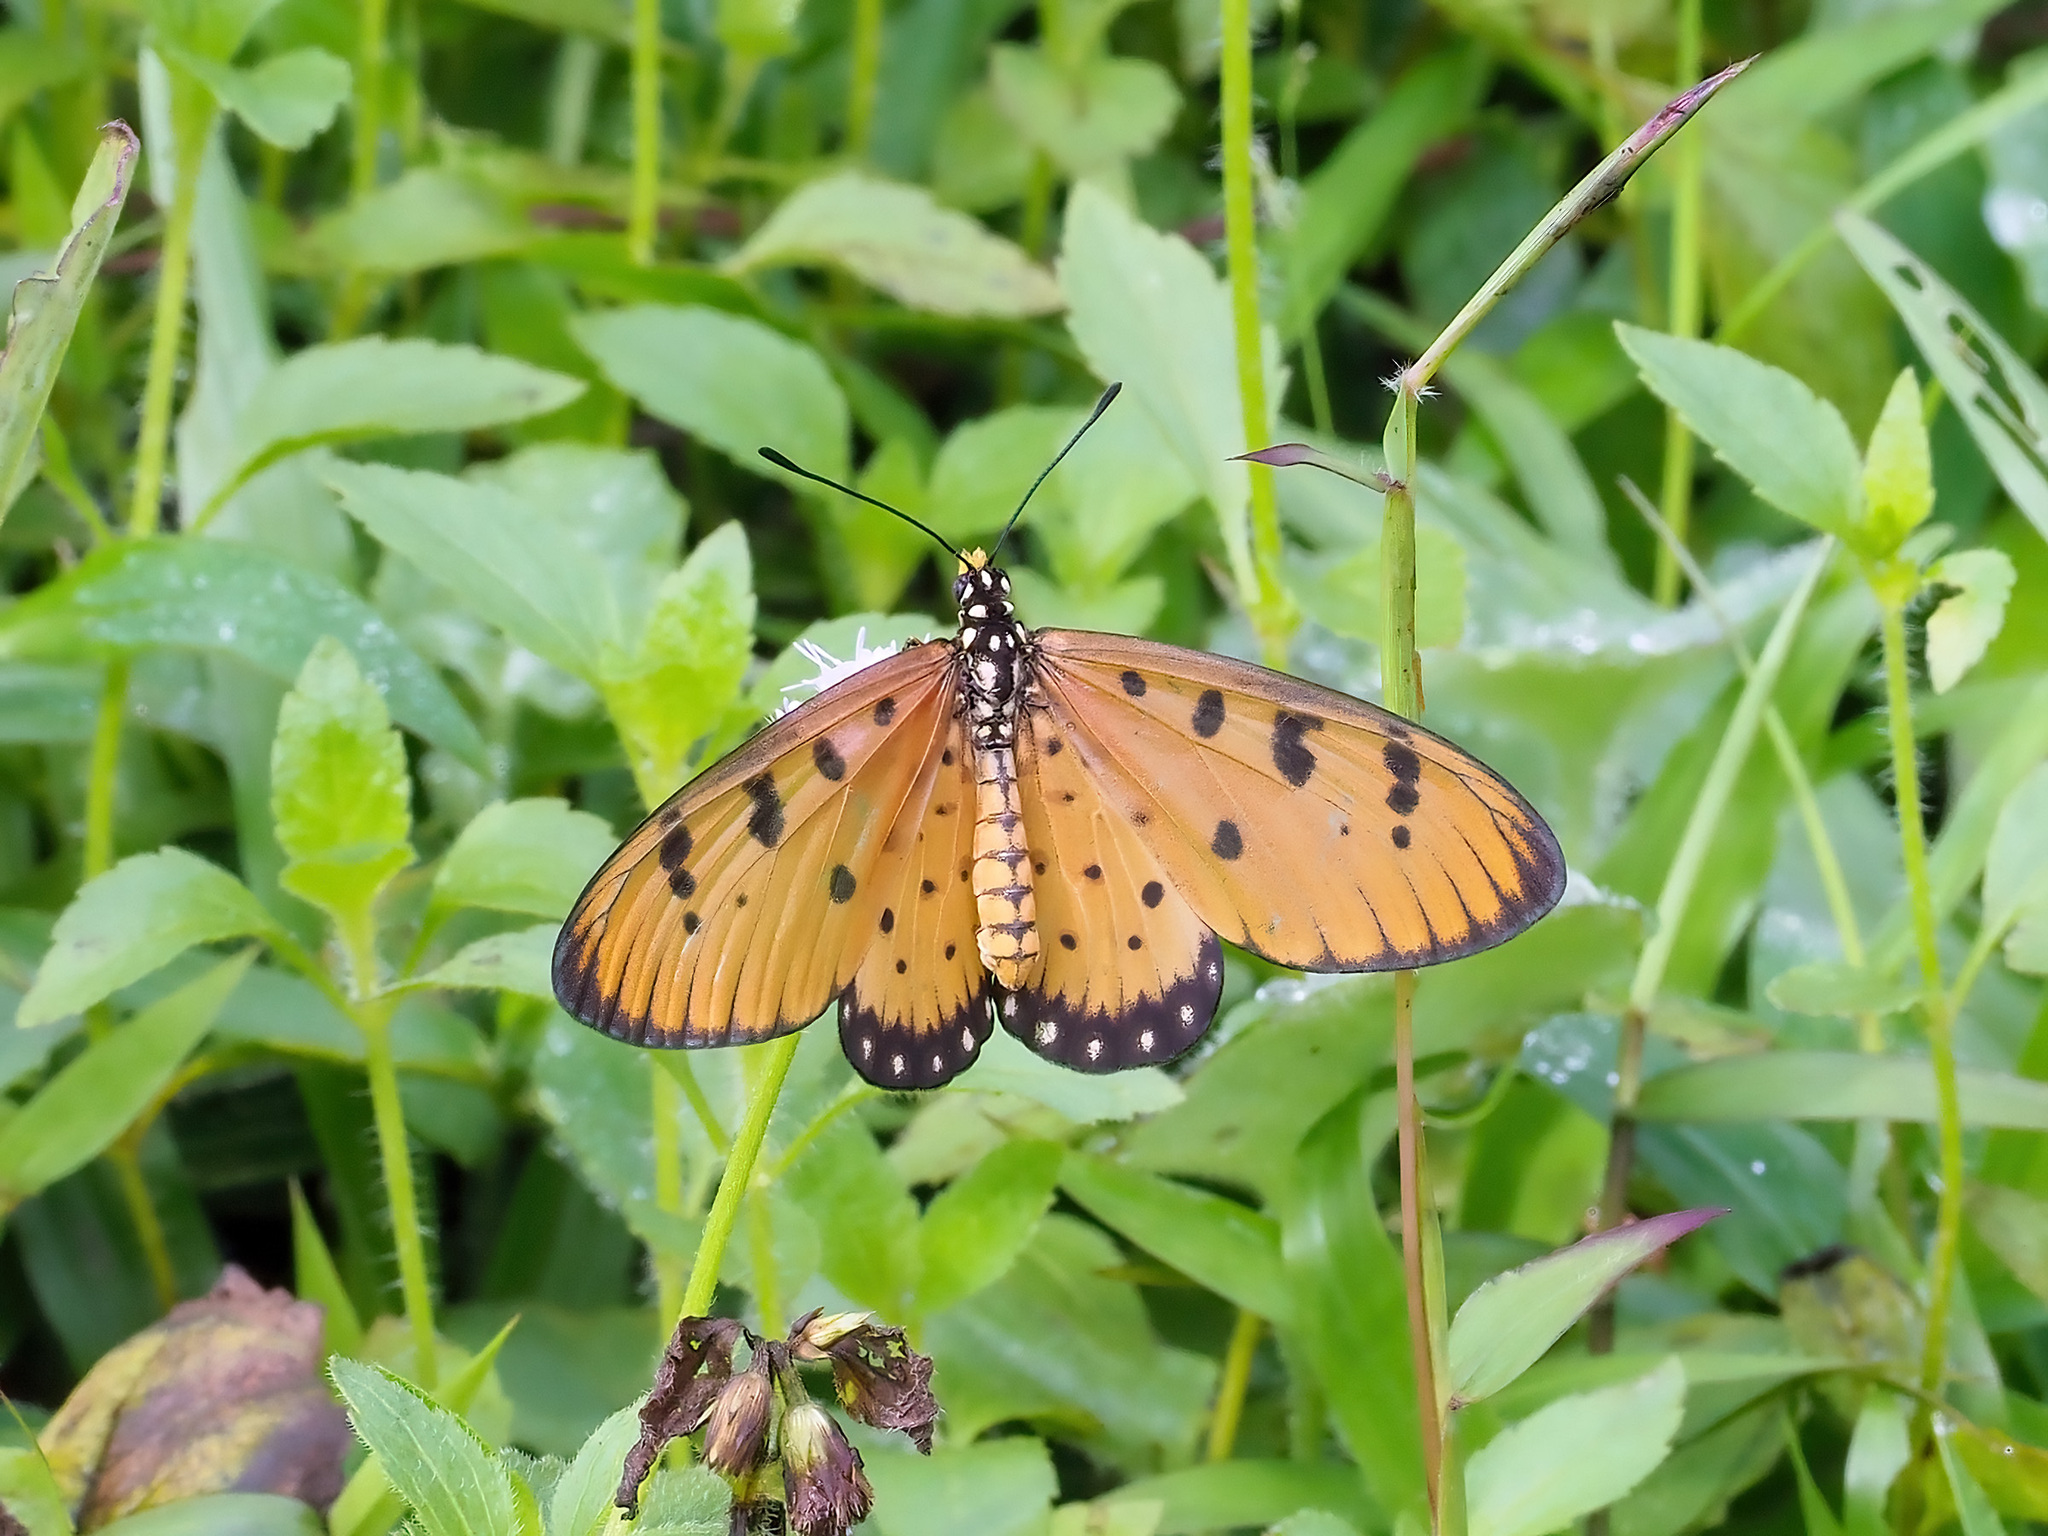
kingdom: Animalia
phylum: Arthropoda
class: Insecta
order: Lepidoptera
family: Nymphalidae
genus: Acraea
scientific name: Acraea terpsicore
